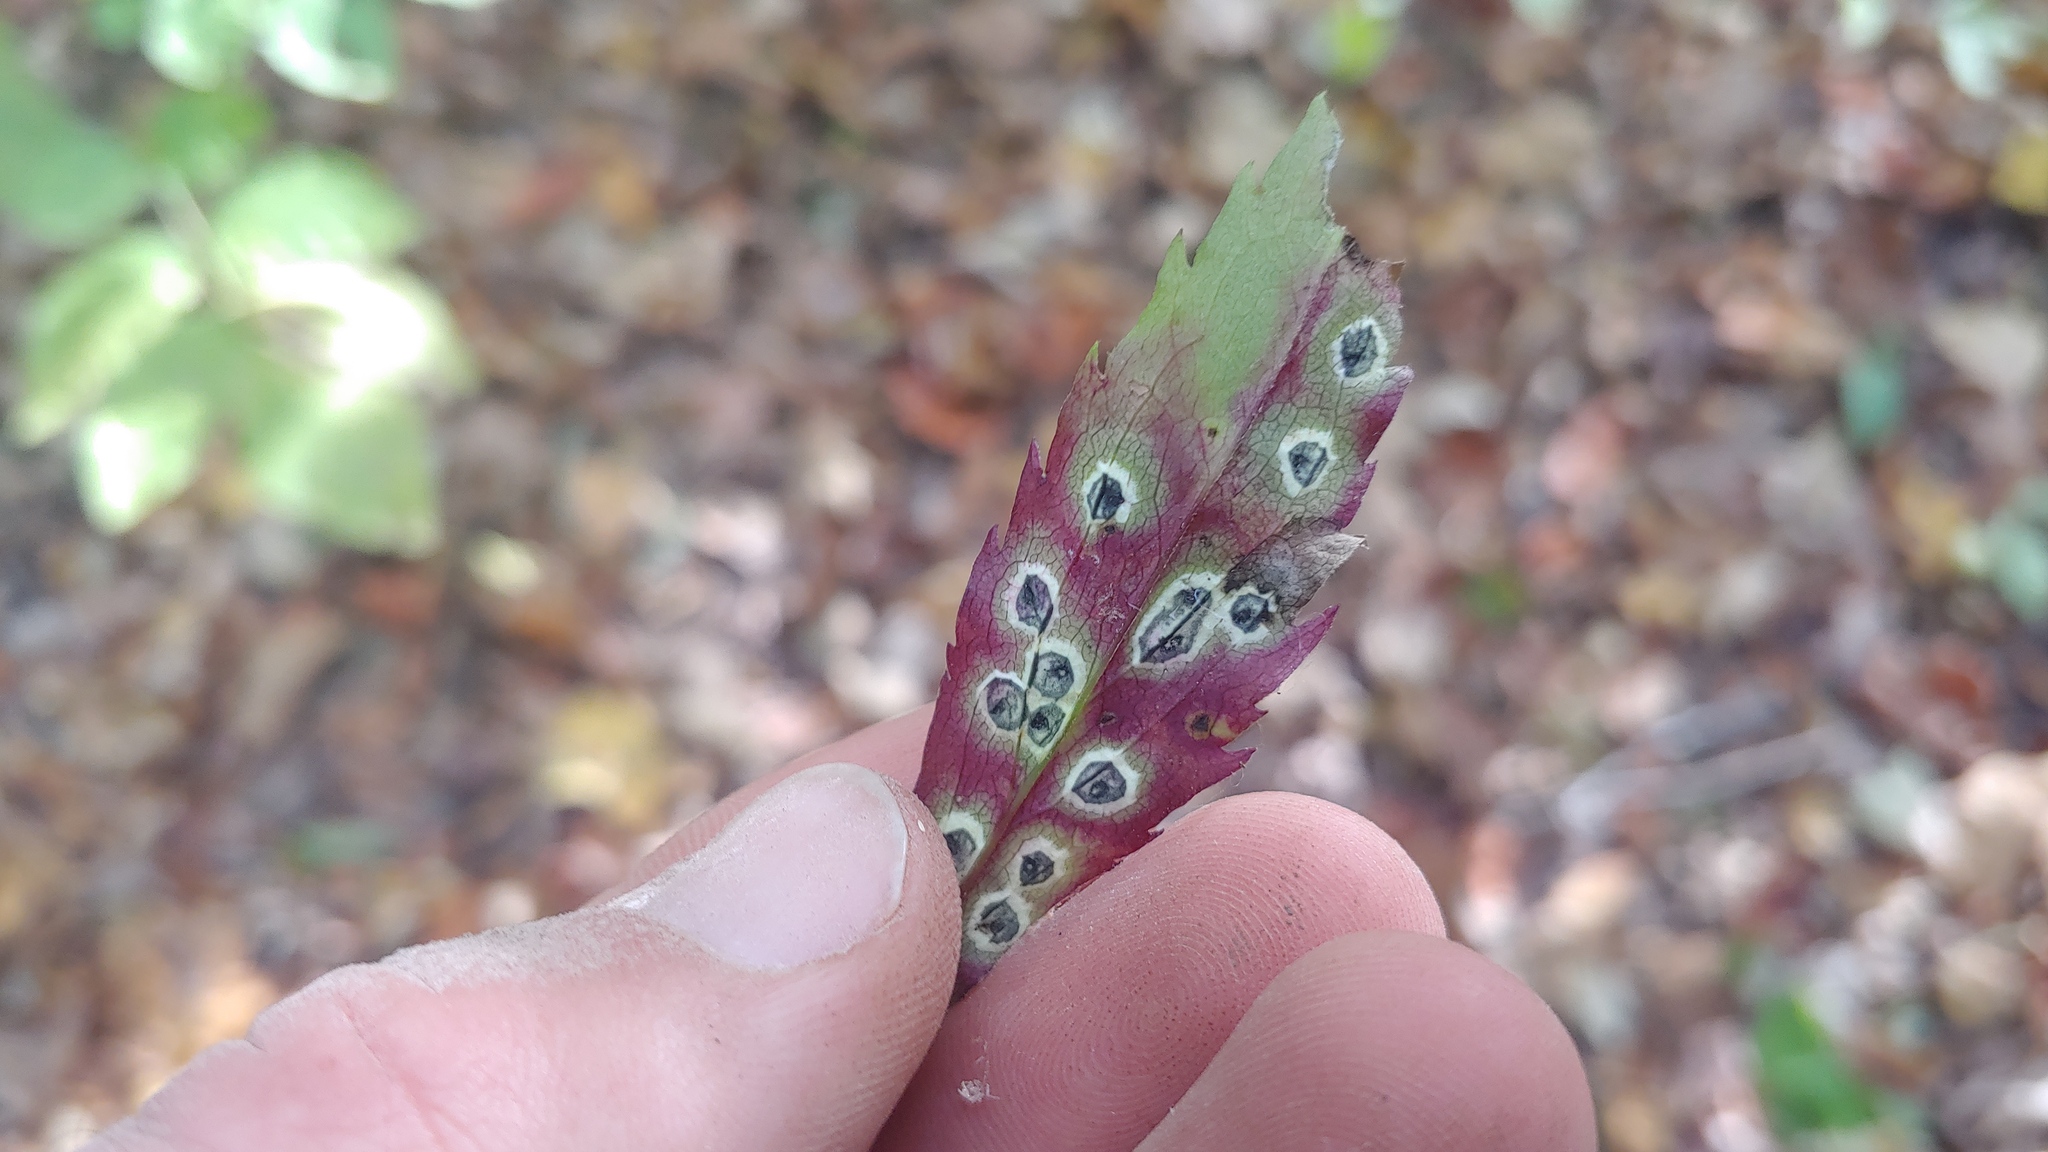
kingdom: Fungi
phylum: Ascomycota
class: Dothideomycetes
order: Botryosphaeriales
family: Botryosphaeriaceae
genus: Botryosphaeria
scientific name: Botryosphaeria dothidea
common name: Asteromyia gall midge fungus
